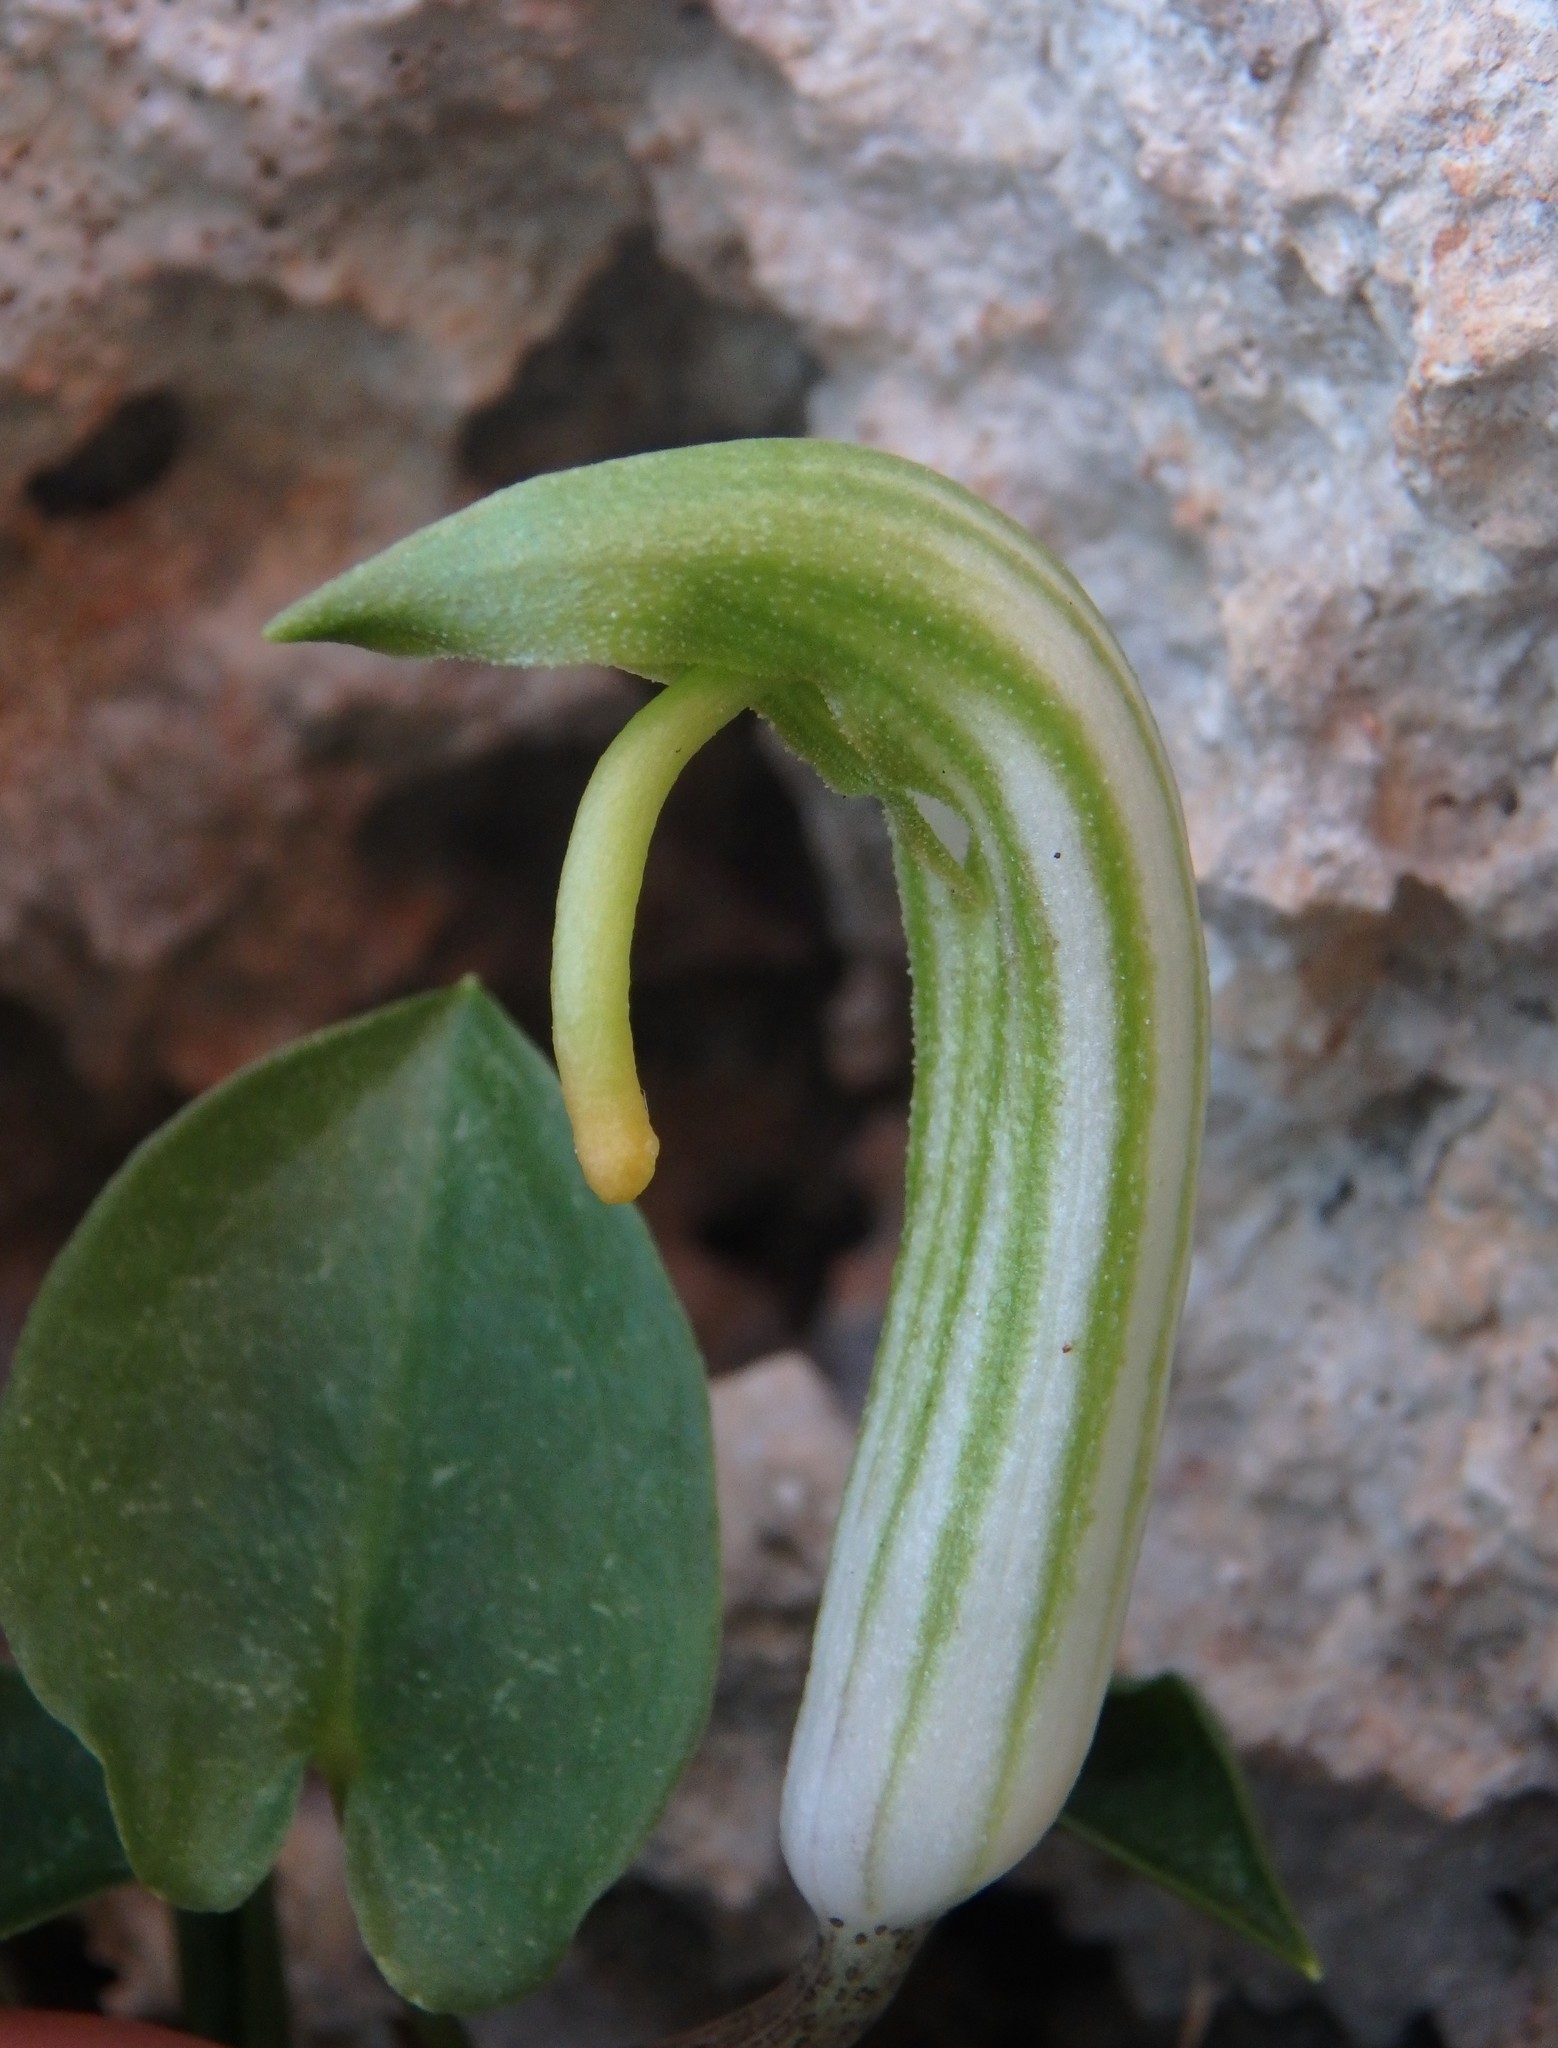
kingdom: Plantae
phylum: Tracheophyta
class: Liliopsida
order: Alismatales
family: Araceae
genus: Arisarum
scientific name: Arisarum vulgare
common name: Common arisarum
